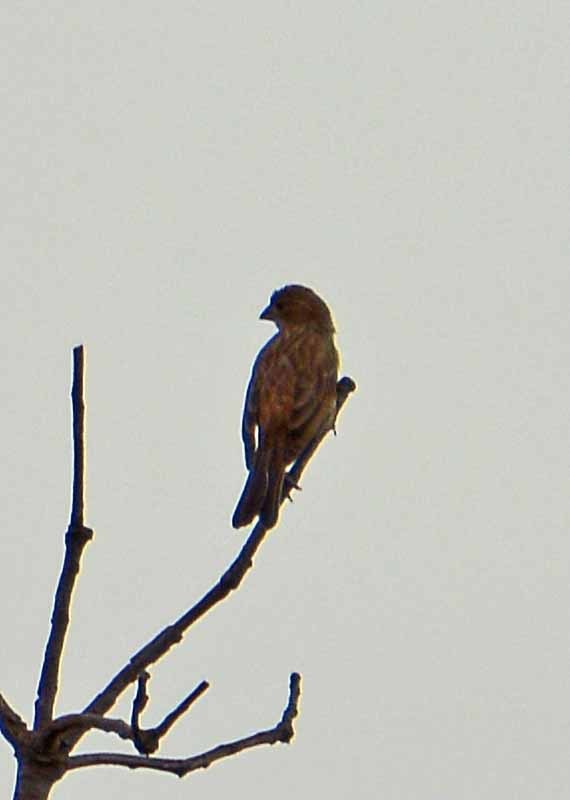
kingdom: Animalia
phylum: Chordata
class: Aves
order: Passeriformes
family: Fringillidae
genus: Haemorhous
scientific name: Haemorhous mexicanus
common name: House finch
